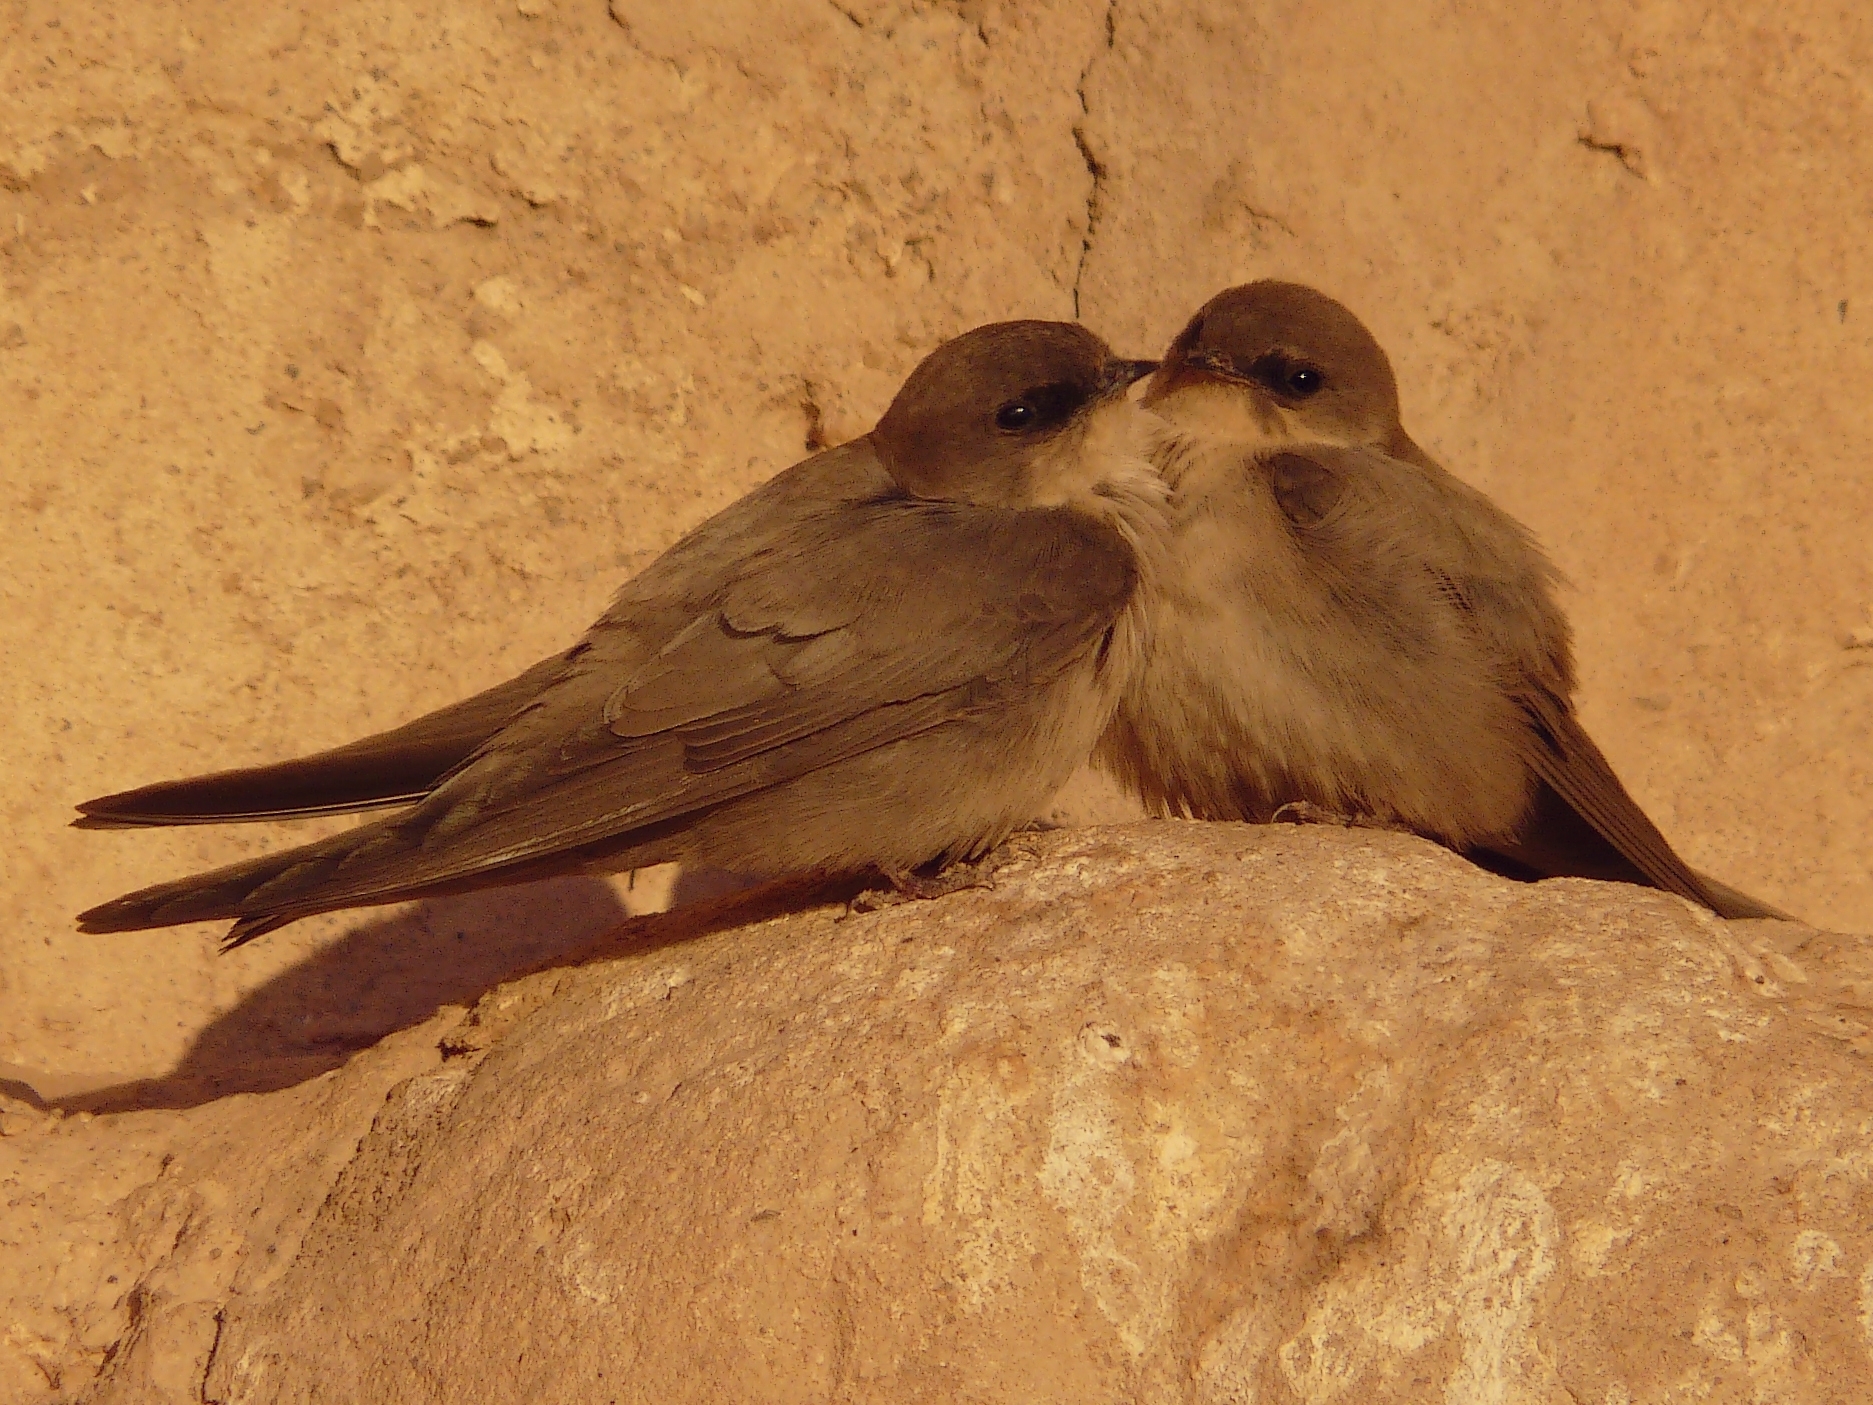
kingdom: Animalia
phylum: Chordata
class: Aves
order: Passeriformes
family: Hirundinidae
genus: Ptyonoprogne
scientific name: Ptyonoprogne fuligula
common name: Rock martin
